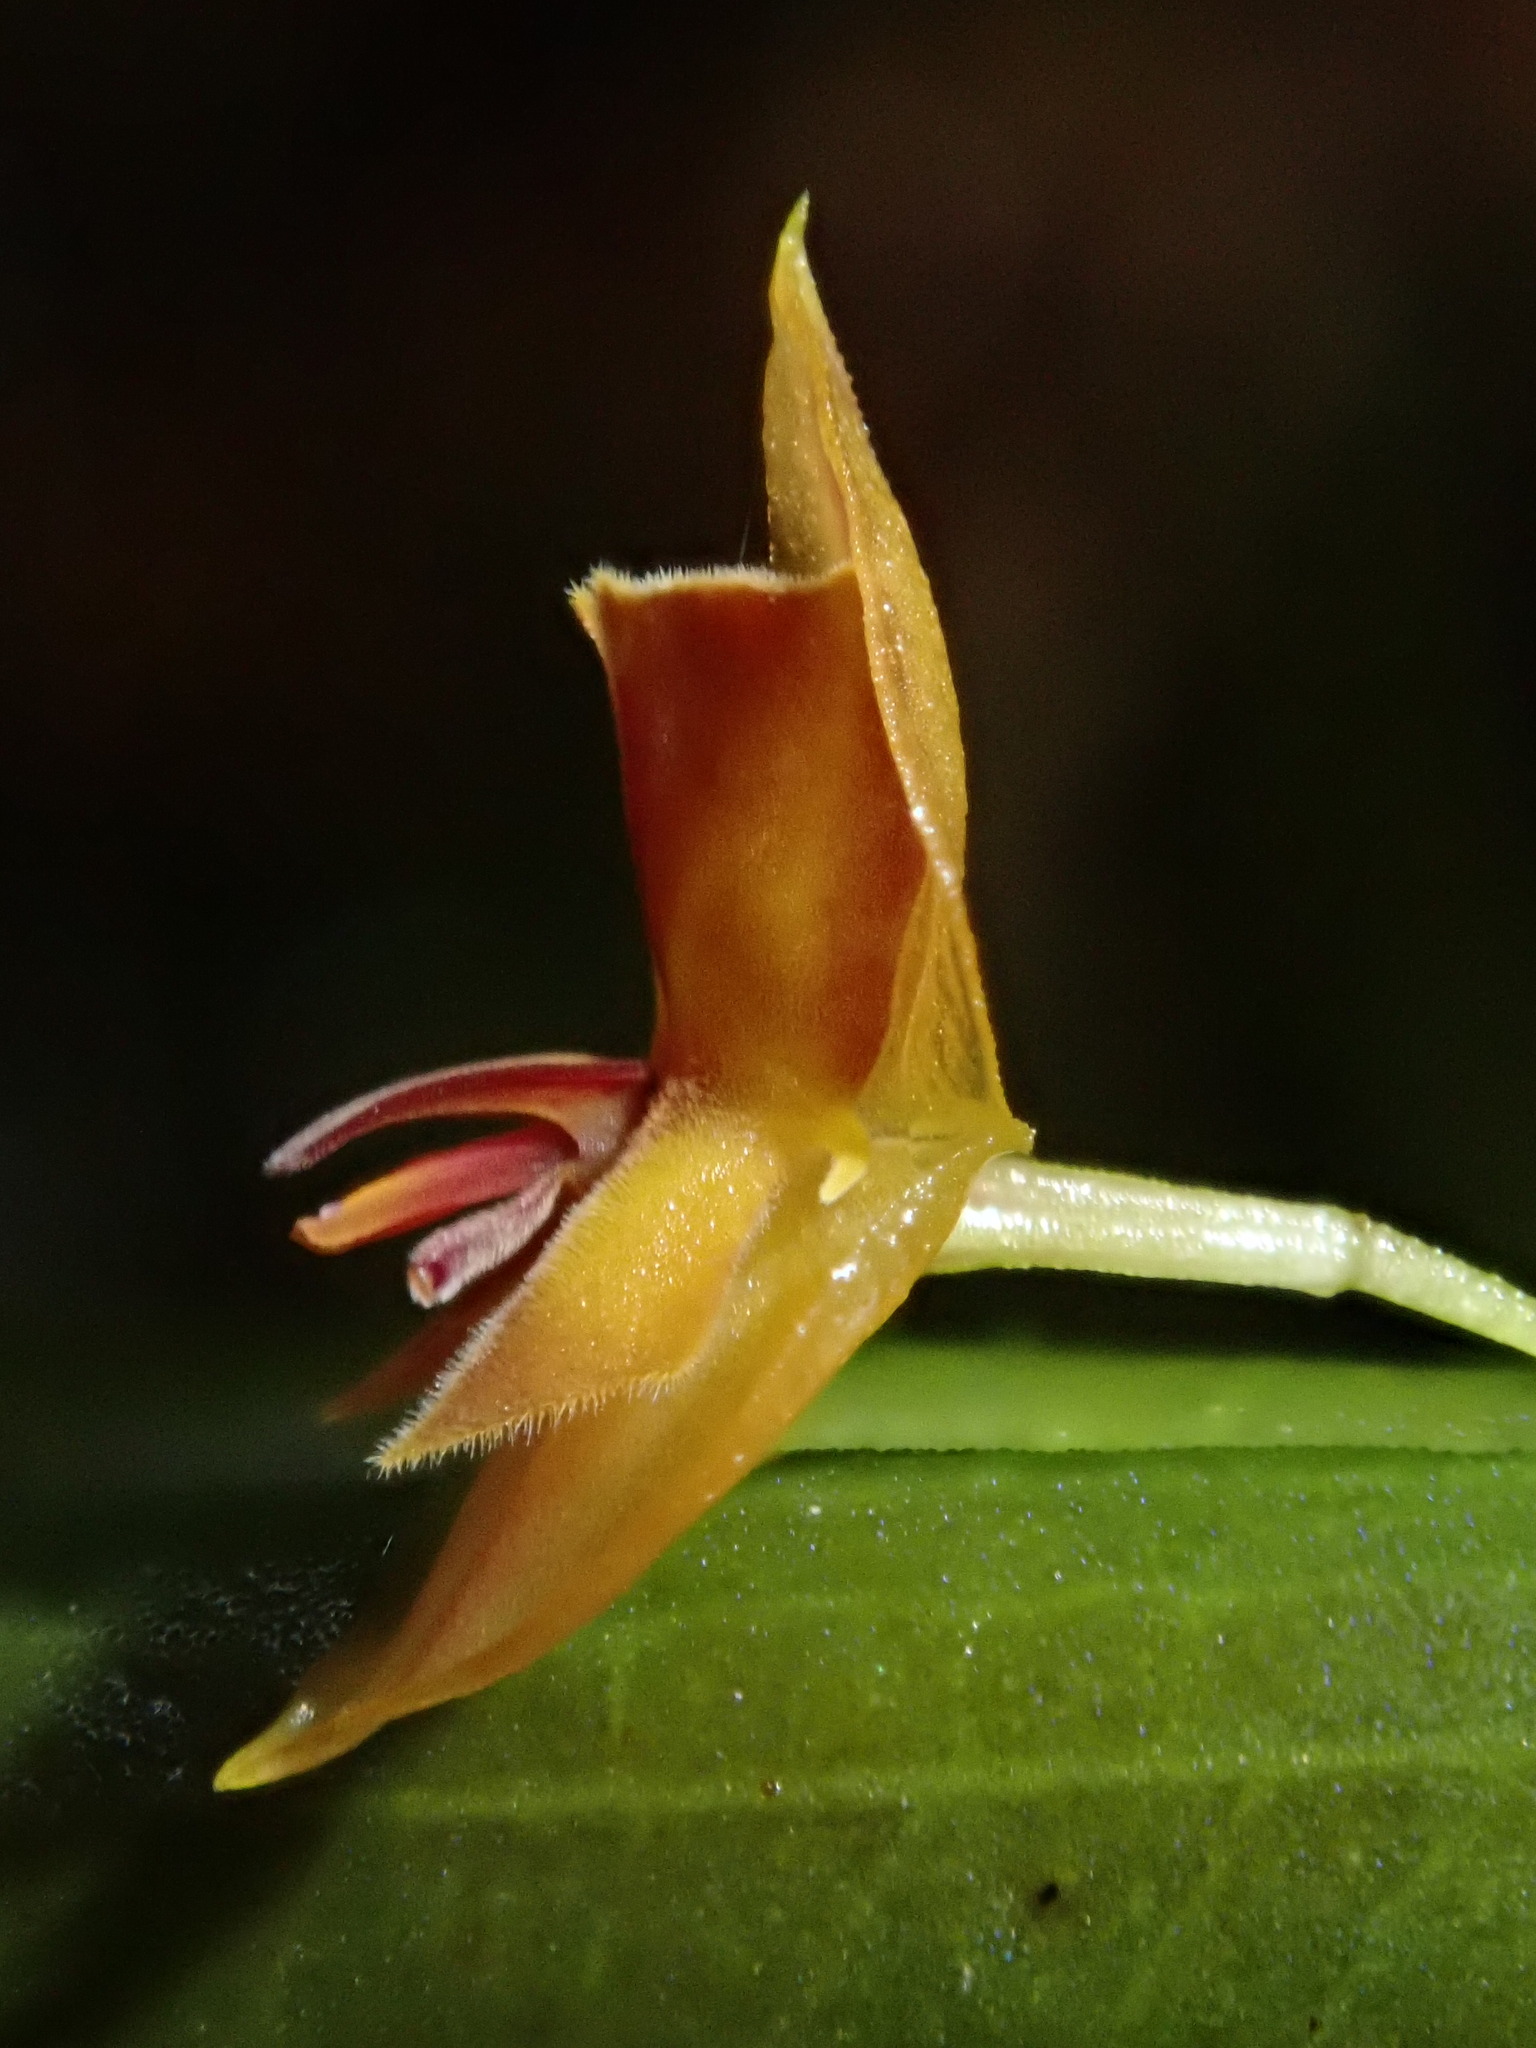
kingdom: Plantae
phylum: Tracheophyta
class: Liliopsida
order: Asparagales
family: Orchidaceae
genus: Lepanthes
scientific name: Lepanthes pseudomucronata
